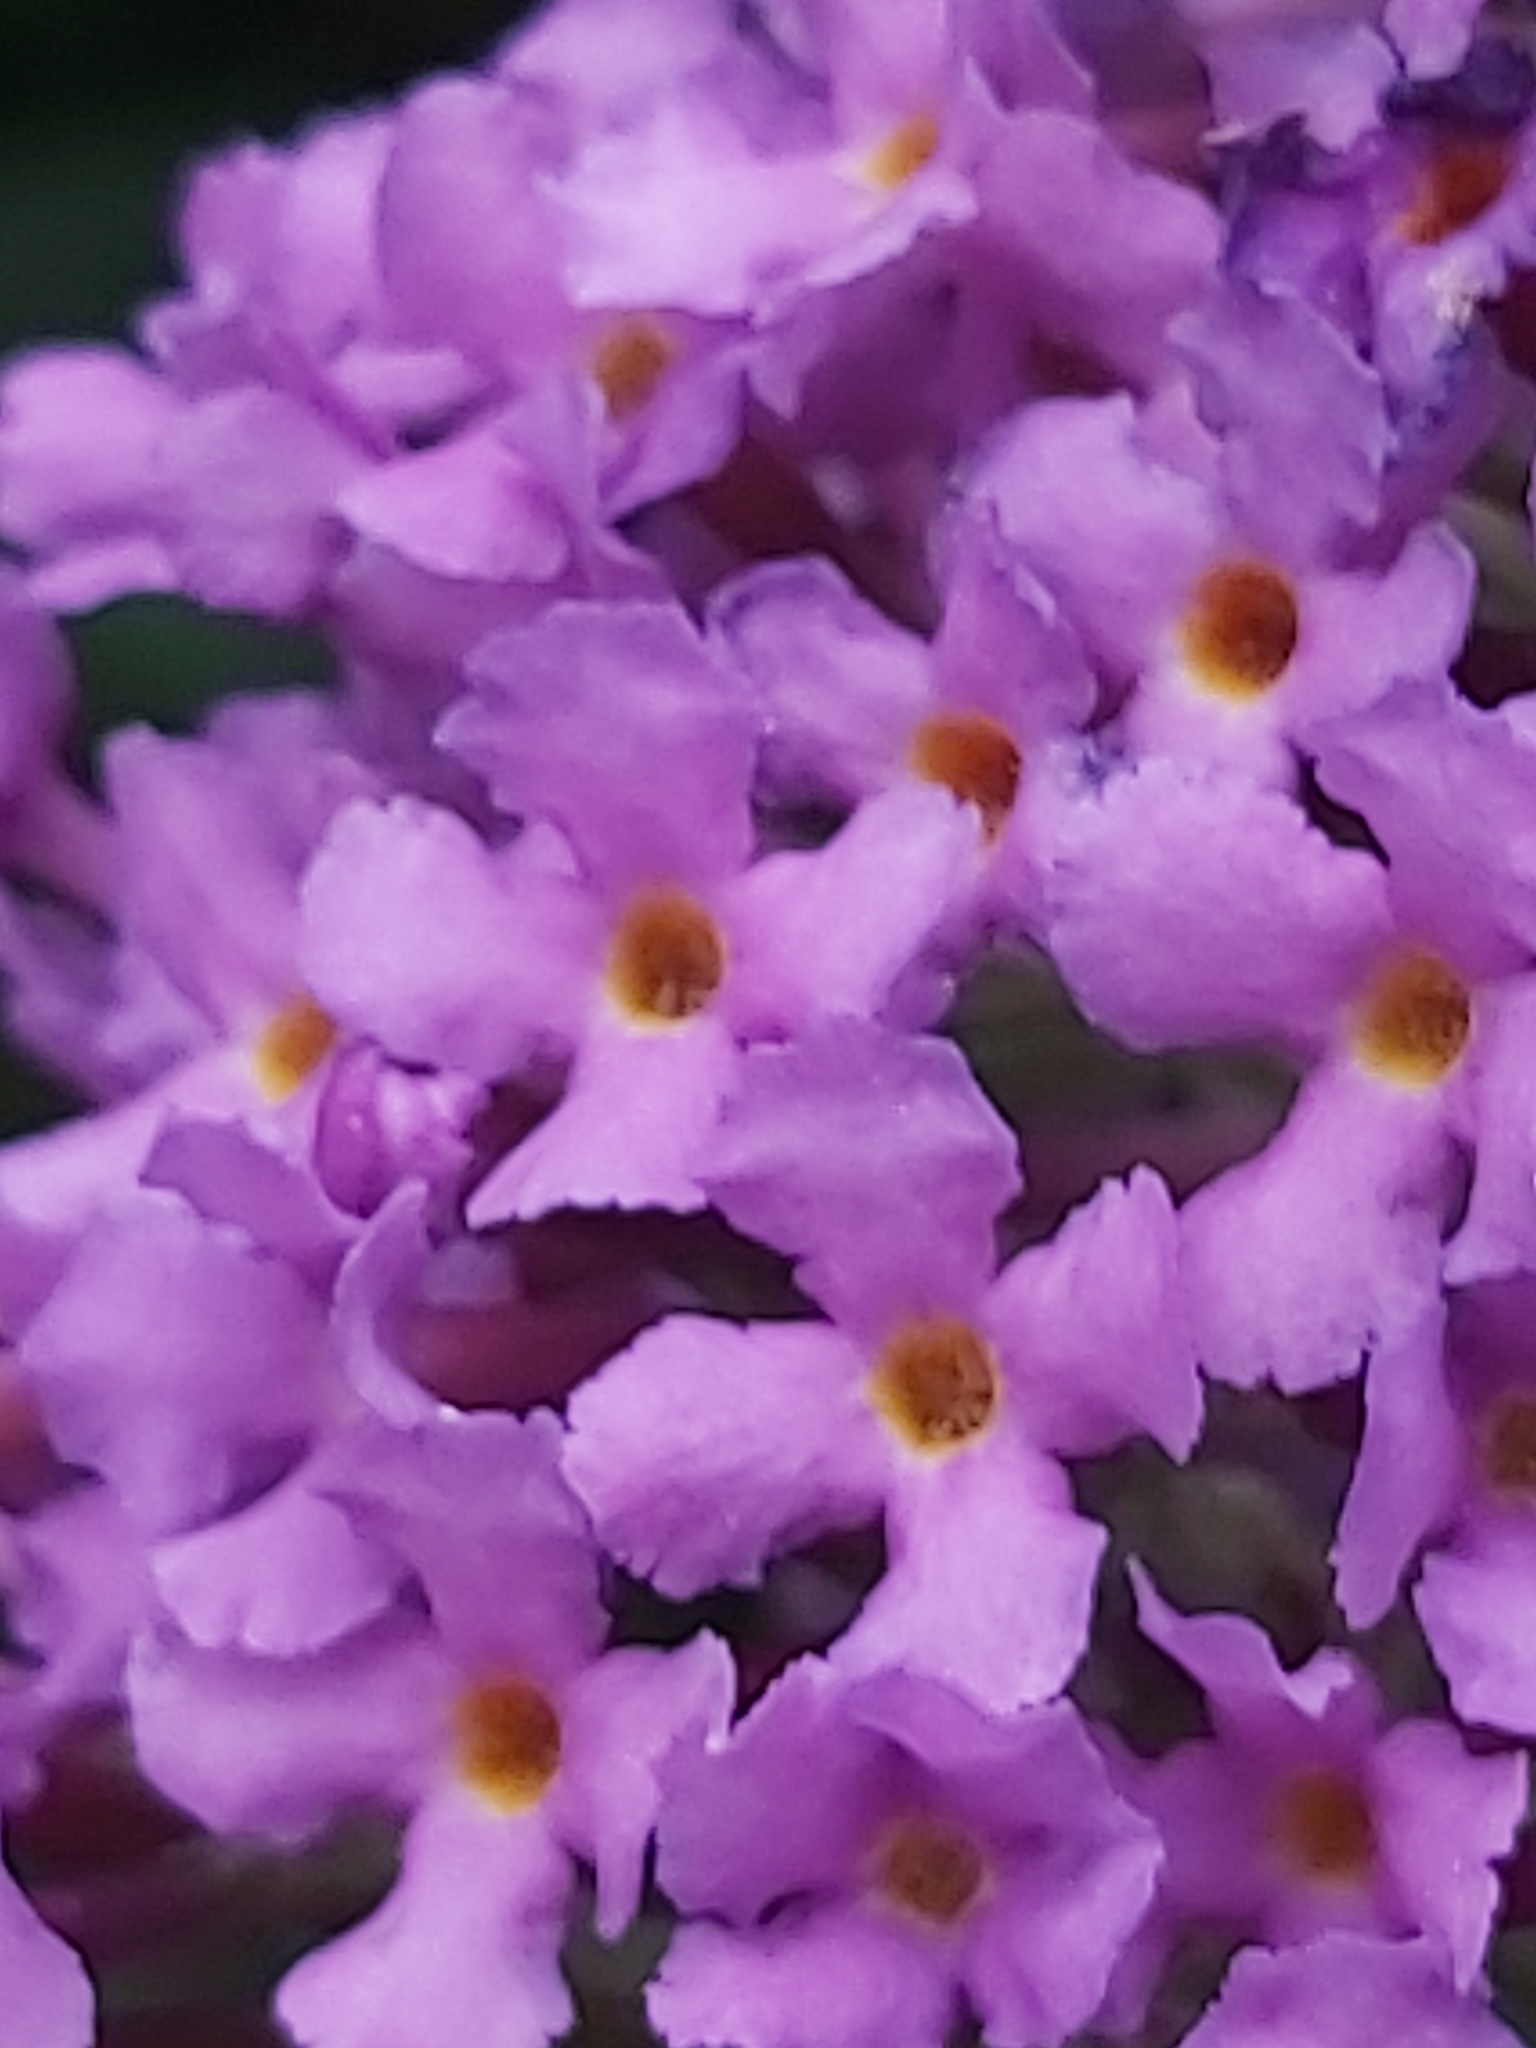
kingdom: Plantae
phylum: Tracheophyta
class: Magnoliopsida
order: Lamiales
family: Scrophulariaceae
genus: Buddleja
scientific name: Buddleja davidii
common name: Butterfly-bush
